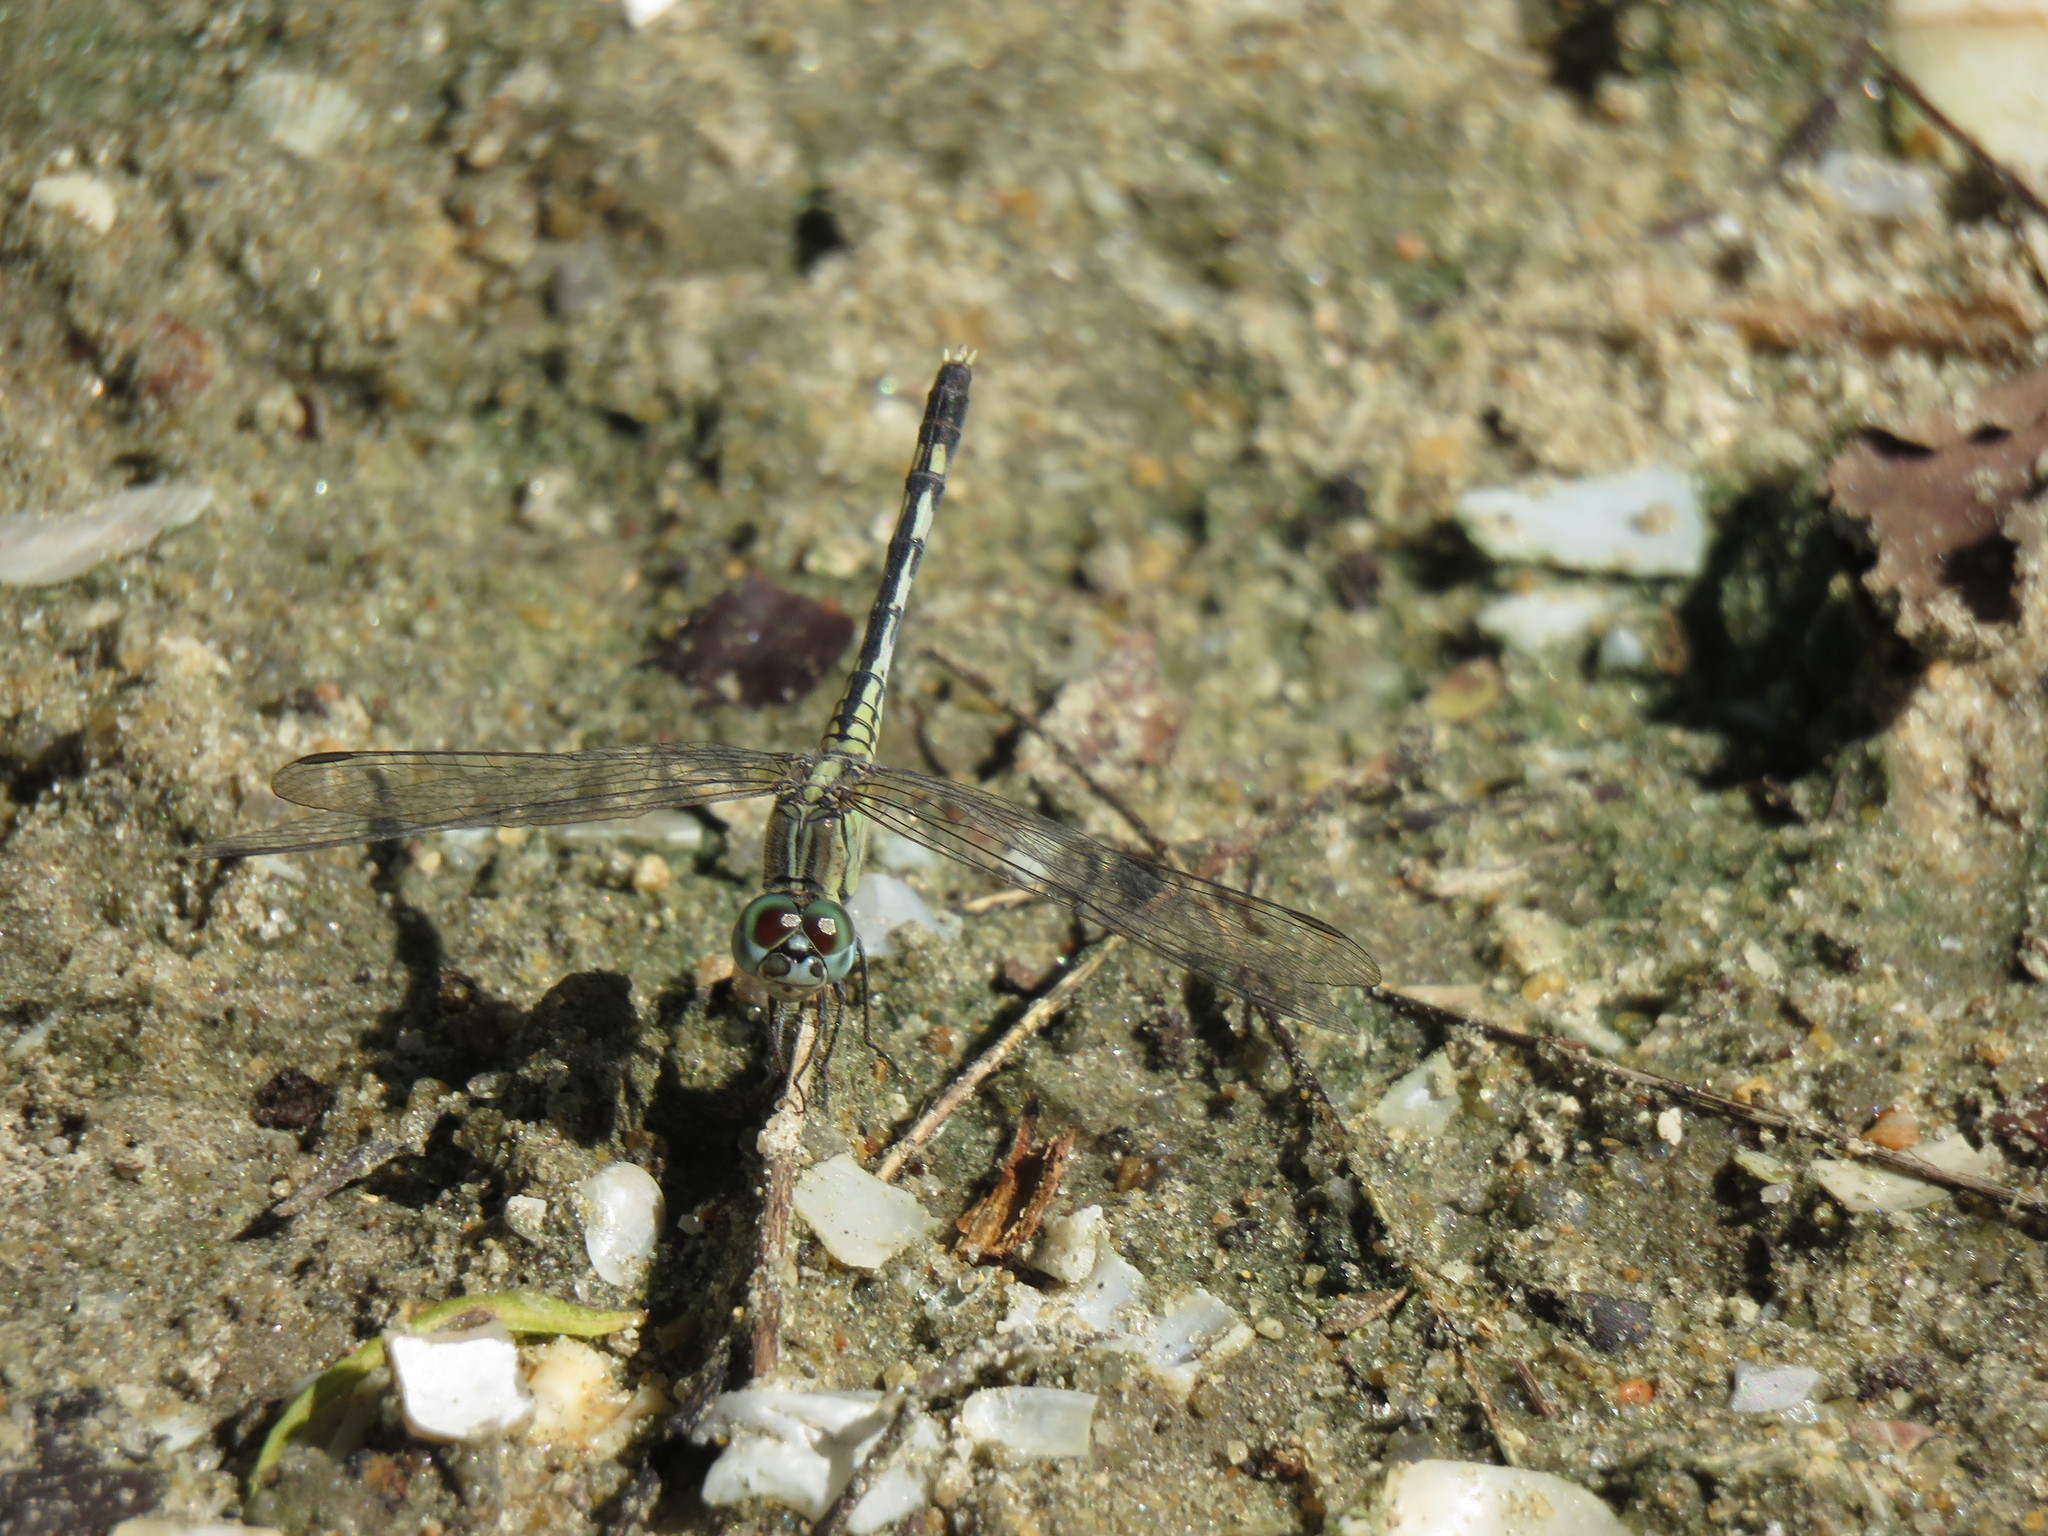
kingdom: Animalia
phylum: Arthropoda
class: Insecta
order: Odonata
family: Libellulidae
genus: Diplacodes
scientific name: Diplacodes trivialis
